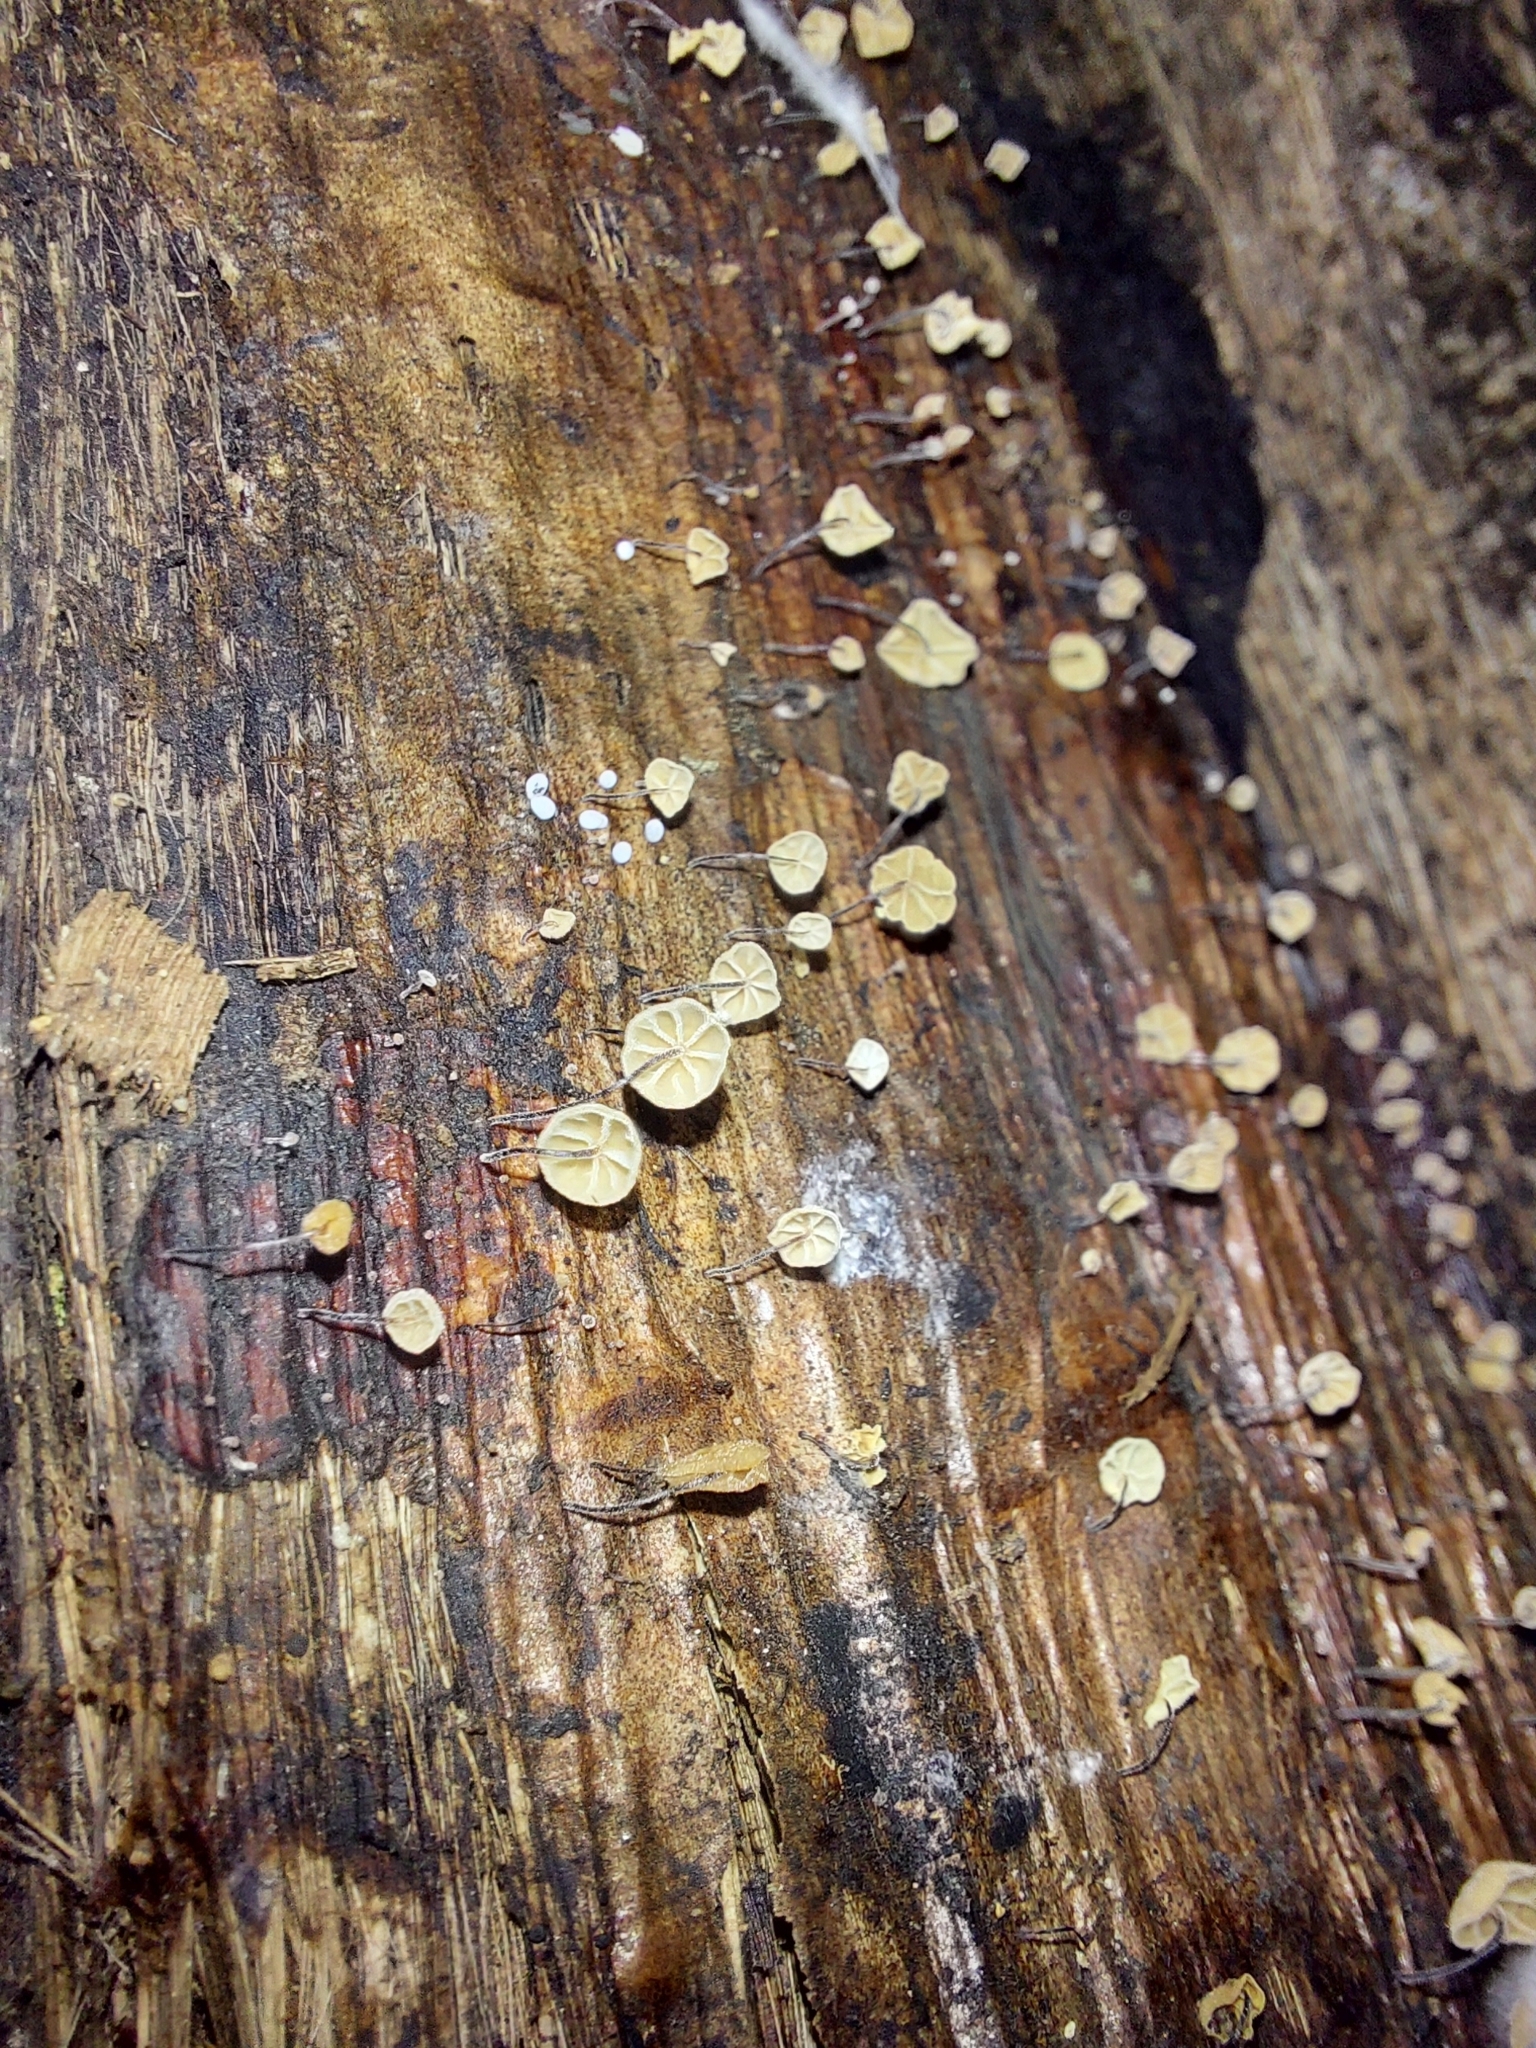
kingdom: Fungi
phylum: Basidiomycota
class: Agaricomycetes
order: Agaricales
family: Physalacriaceae
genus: Cryptomarasmius
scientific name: Cryptomarasmius rhopalostylidis
